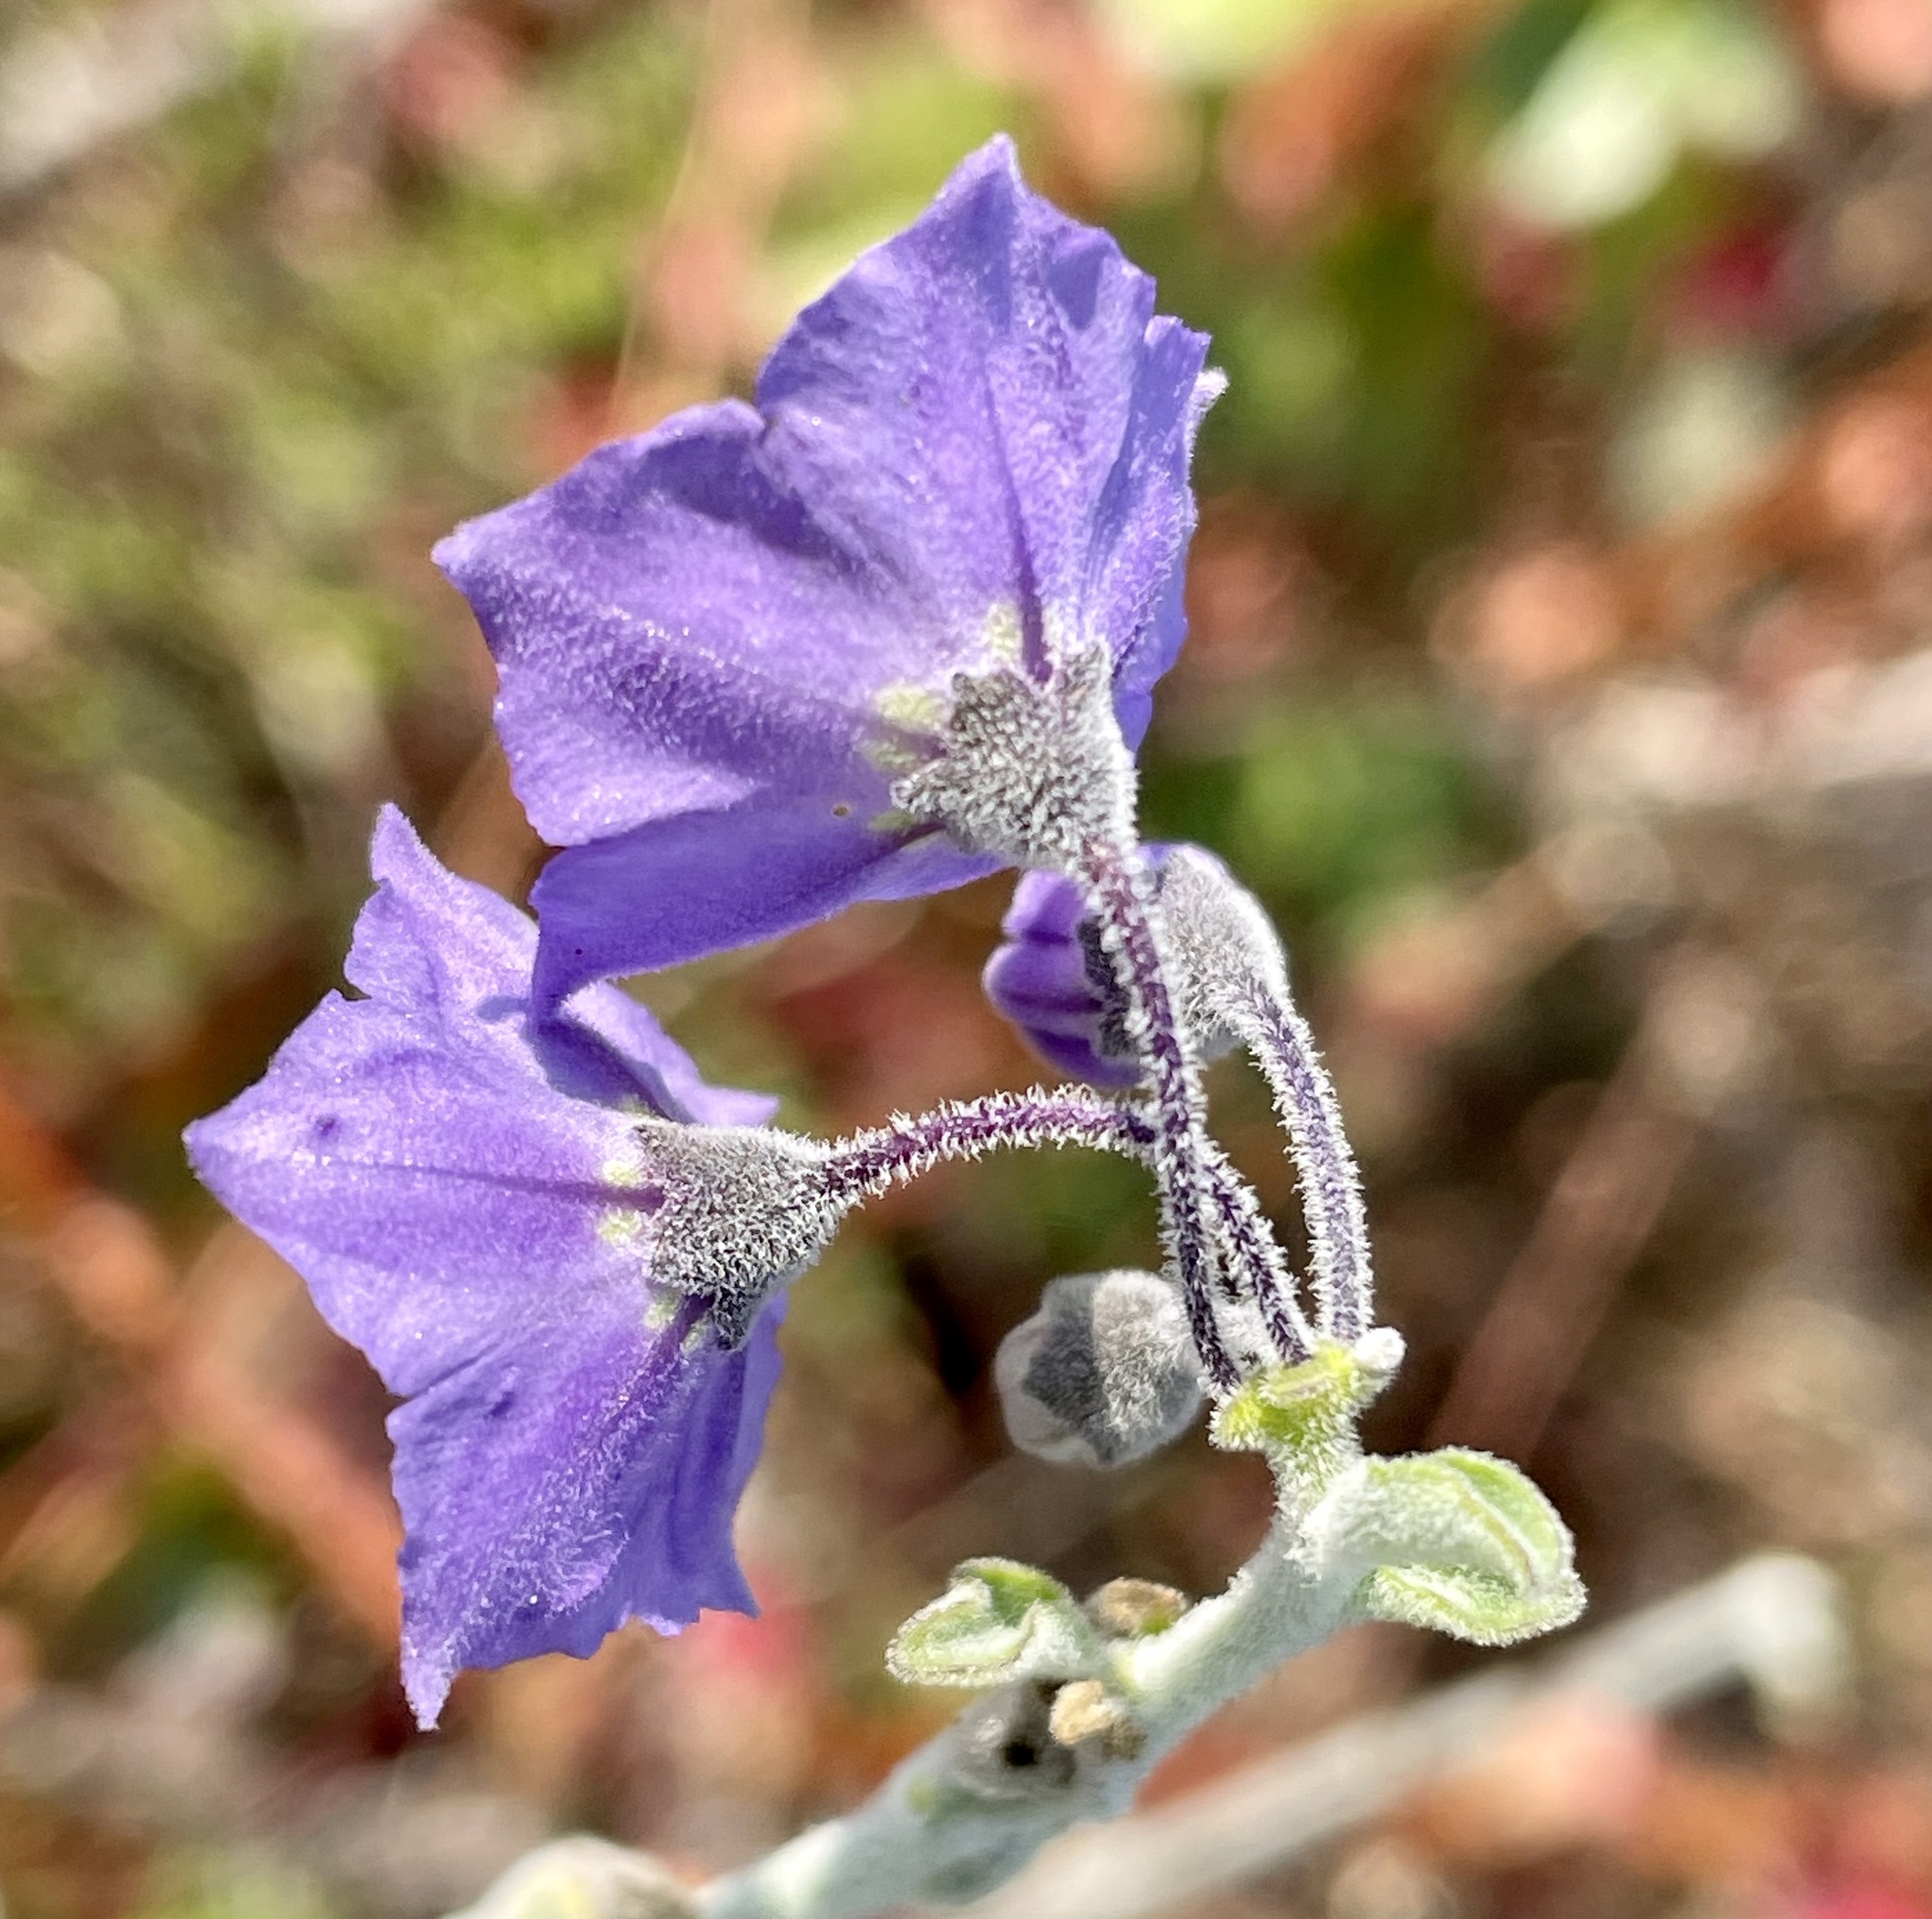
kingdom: Plantae
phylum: Tracheophyta
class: Magnoliopsida
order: Solanales
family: Solanaceae
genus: Solanum
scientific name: Solanum umbelliferum
